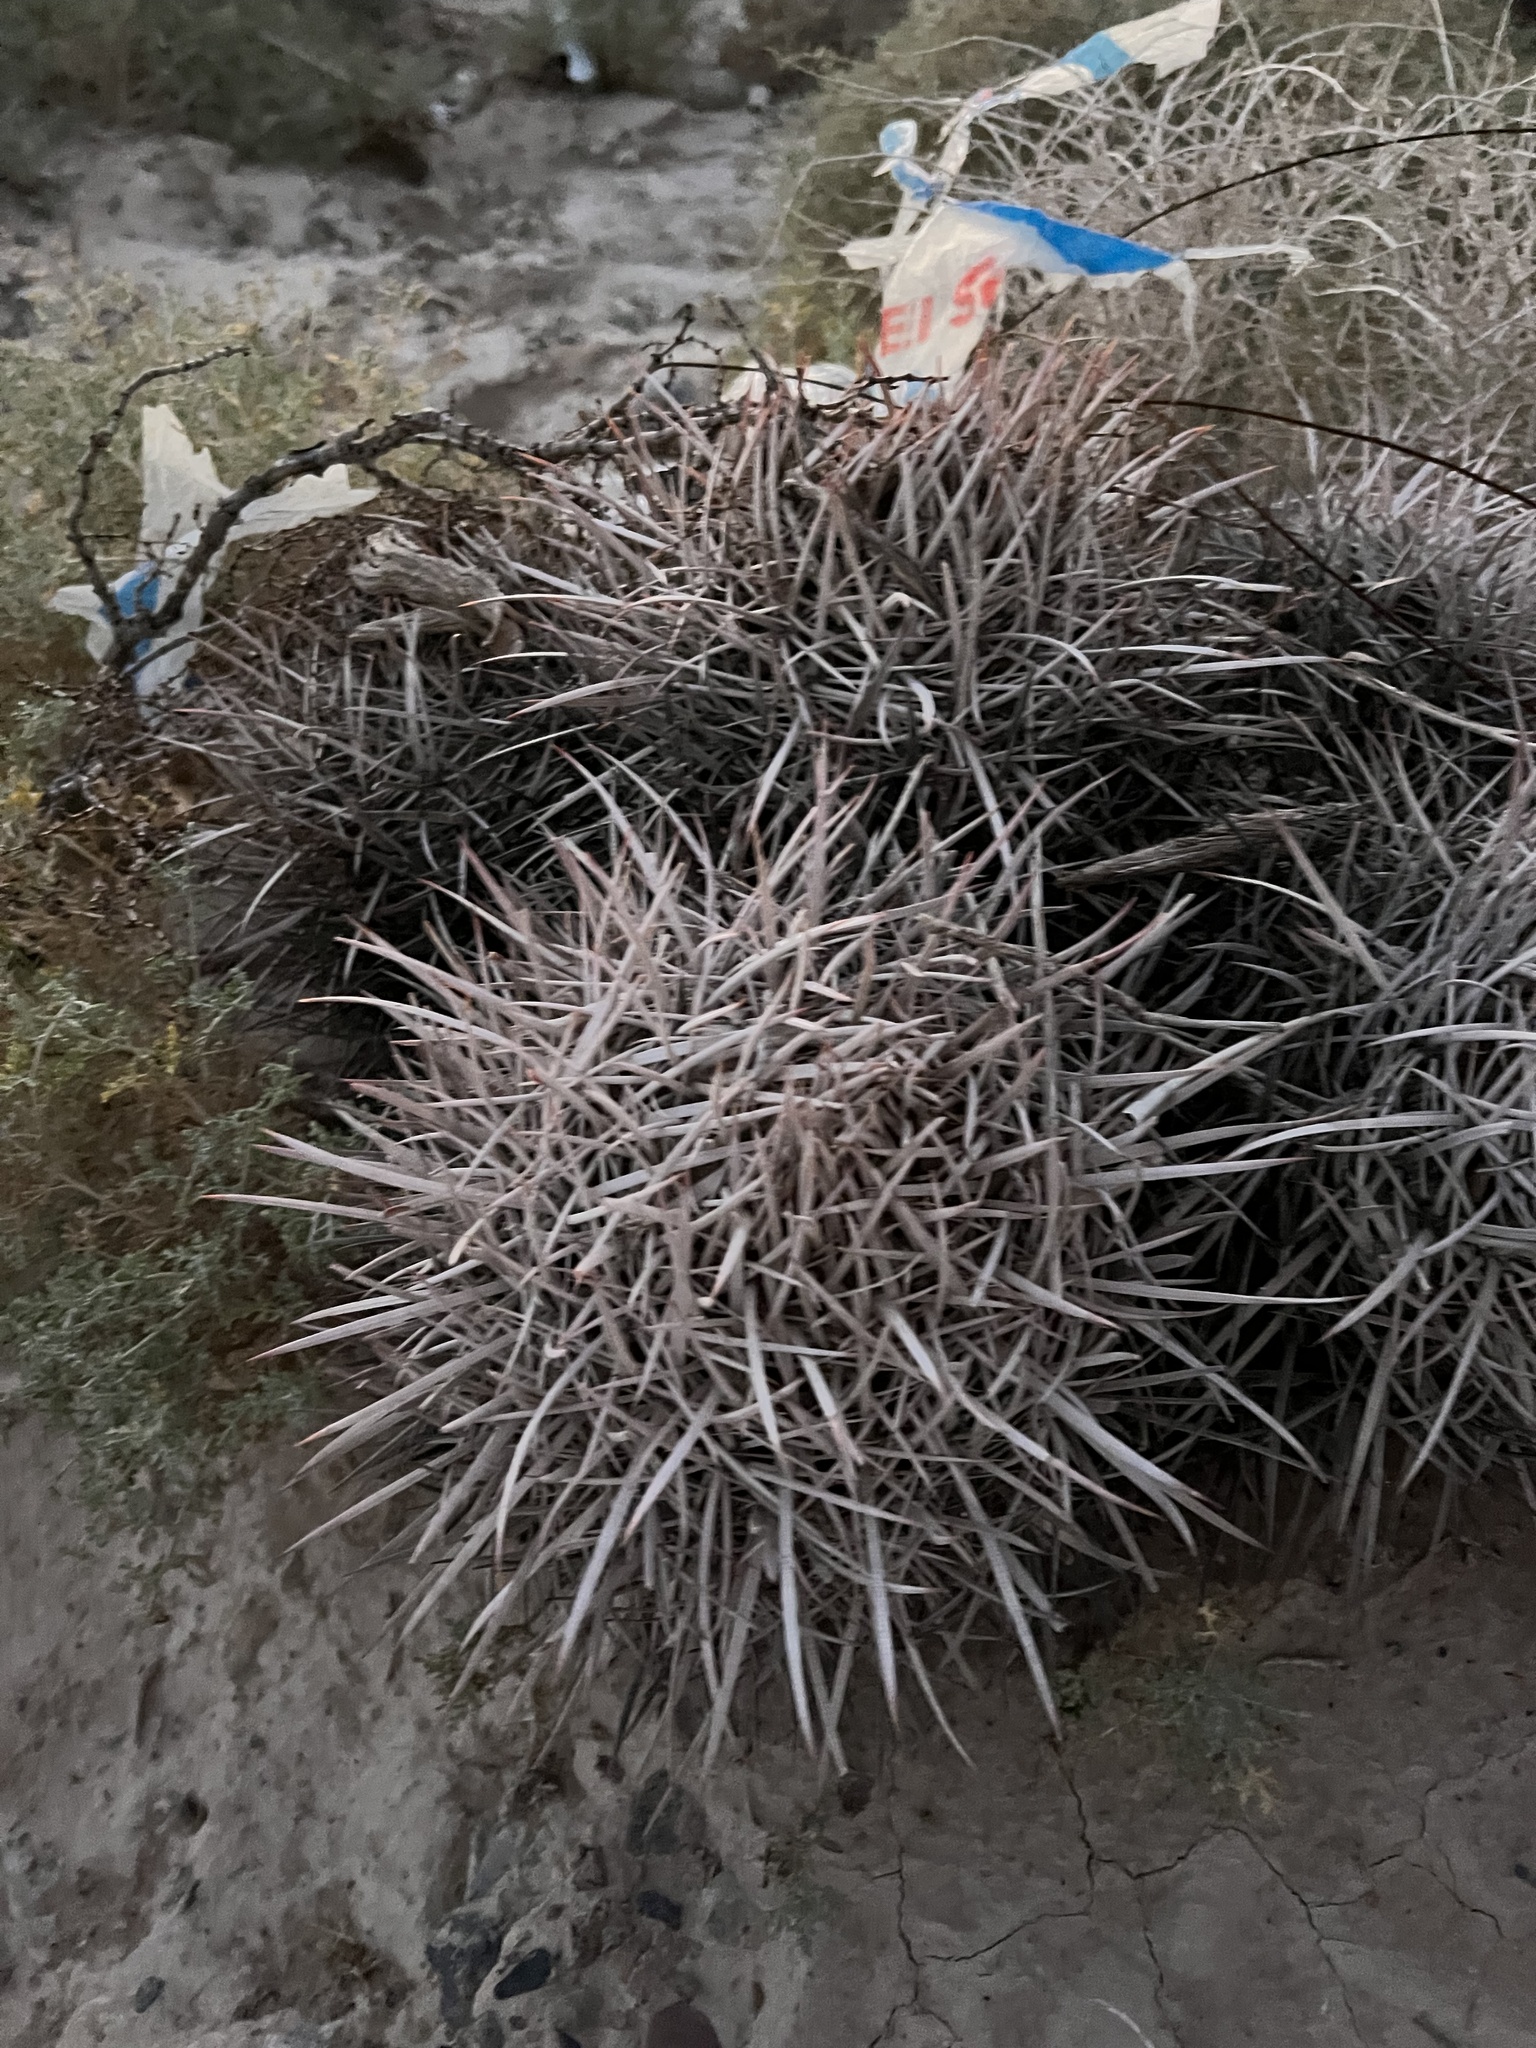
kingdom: Plantae
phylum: Tracheophyta
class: Magnoliopsida
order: Caryophyllales
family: Cactaceae
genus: Echinocactus
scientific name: Echinocactus polycephalus
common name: Cottontop cactus
